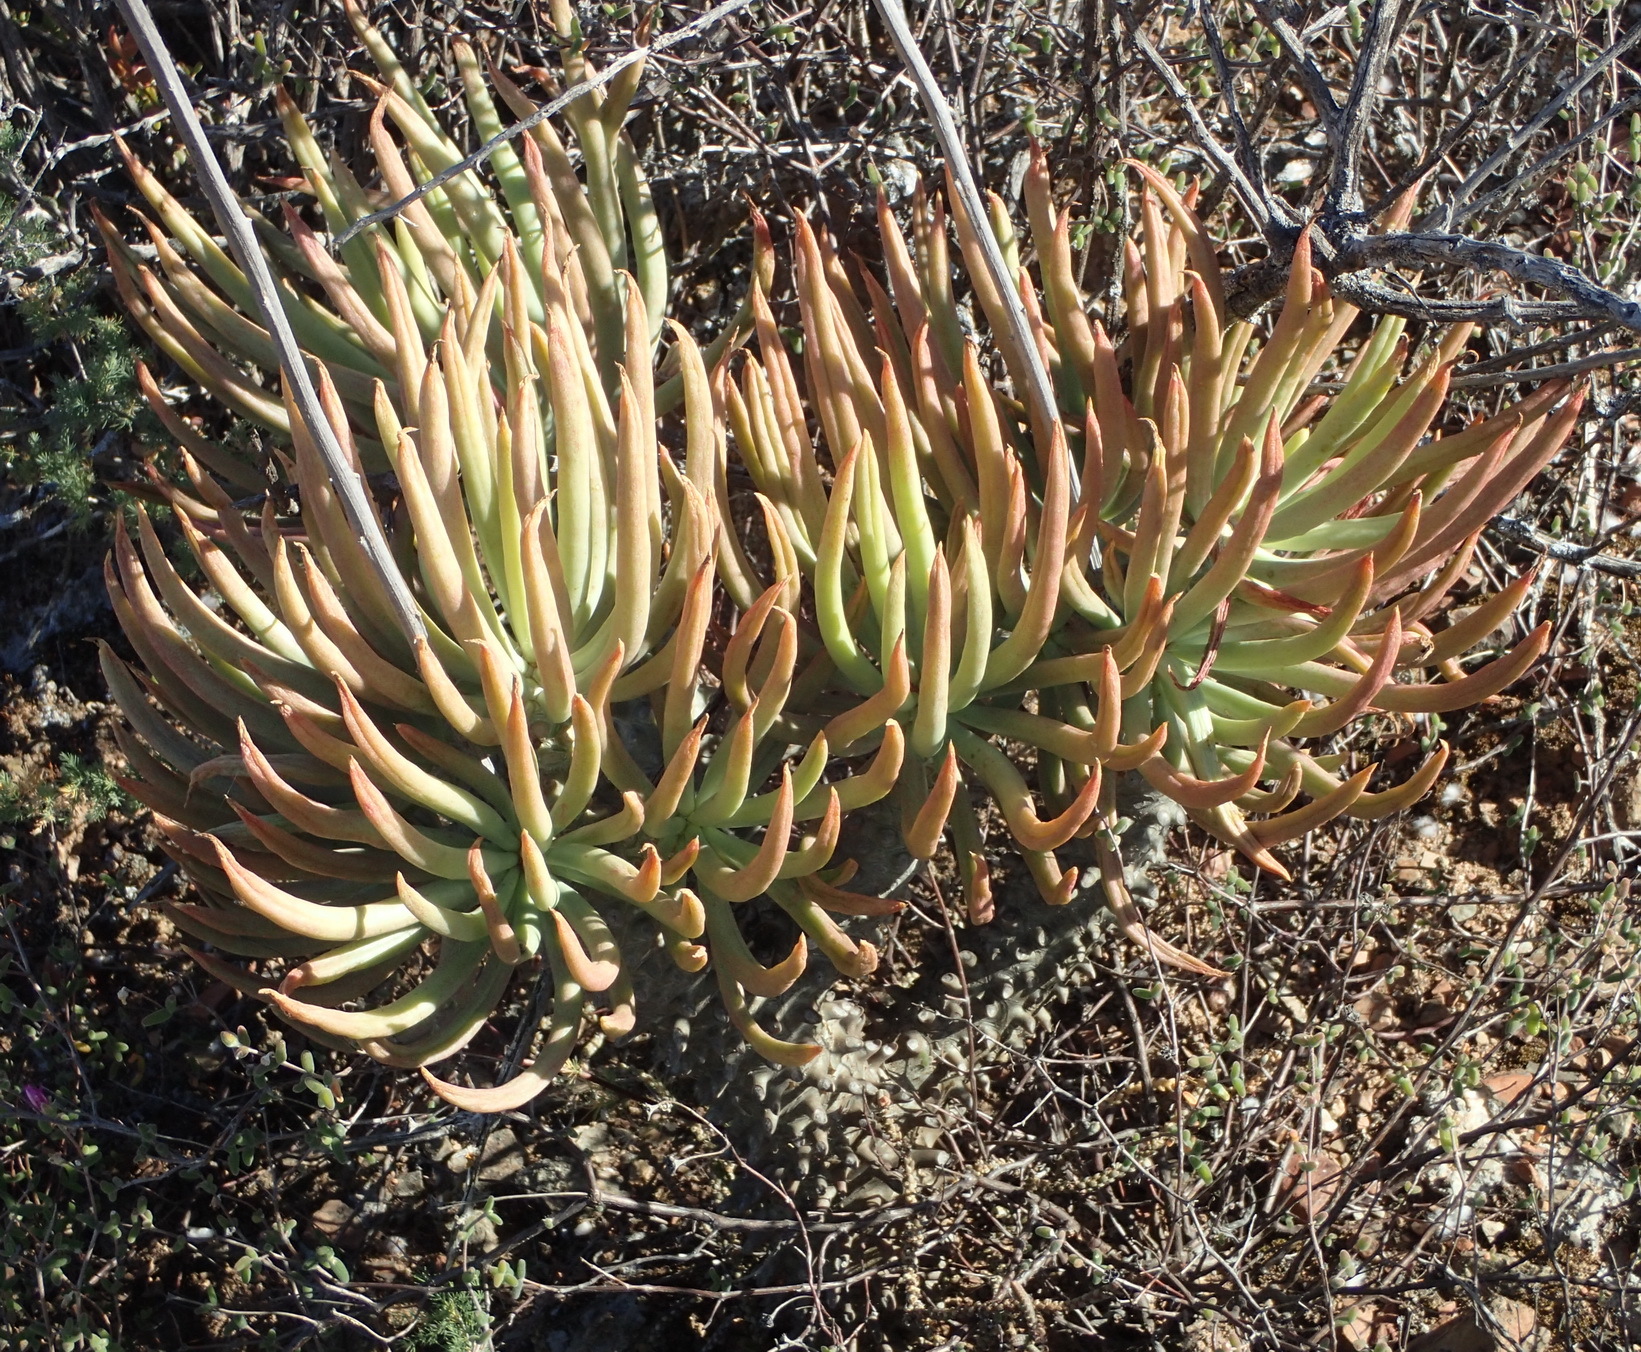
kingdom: Plantae
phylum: Tracheophyta
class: Magnoliopsida
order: Saxifragales
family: Crassulaceae
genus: Tylecodon
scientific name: Tylecodon wallichii
